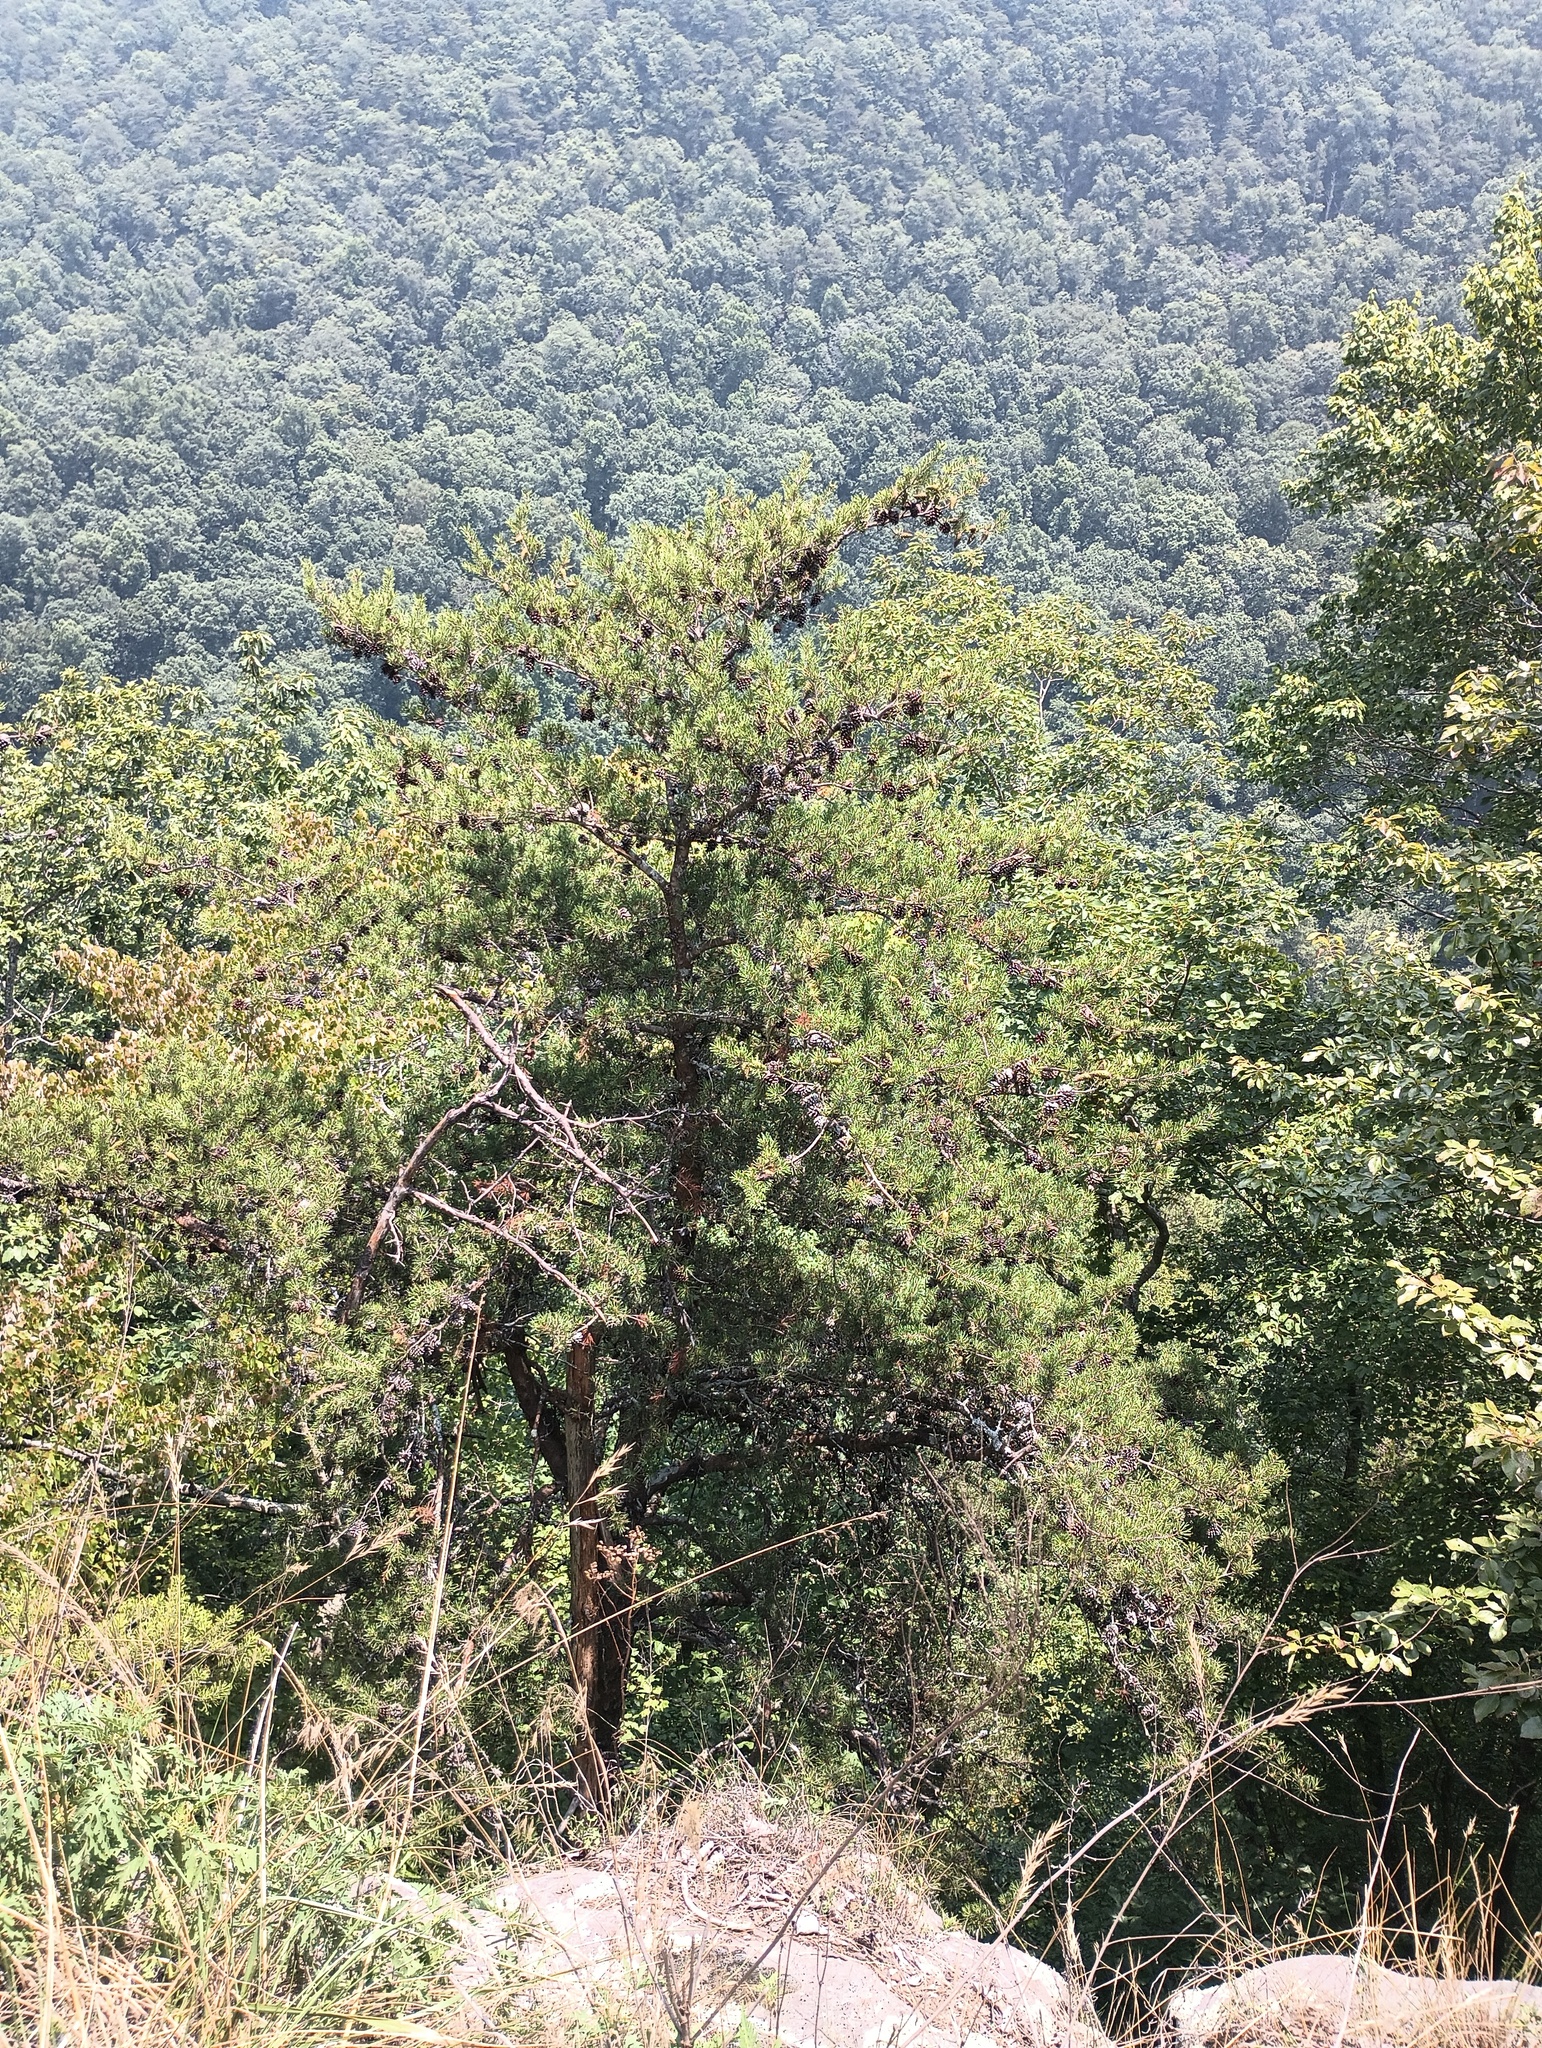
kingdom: Plantae
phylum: Tracheophyta
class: Pinopsida
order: Pinales
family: Pinaceae
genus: Pinus
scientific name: Pinus virginiana
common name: Scrub pine
